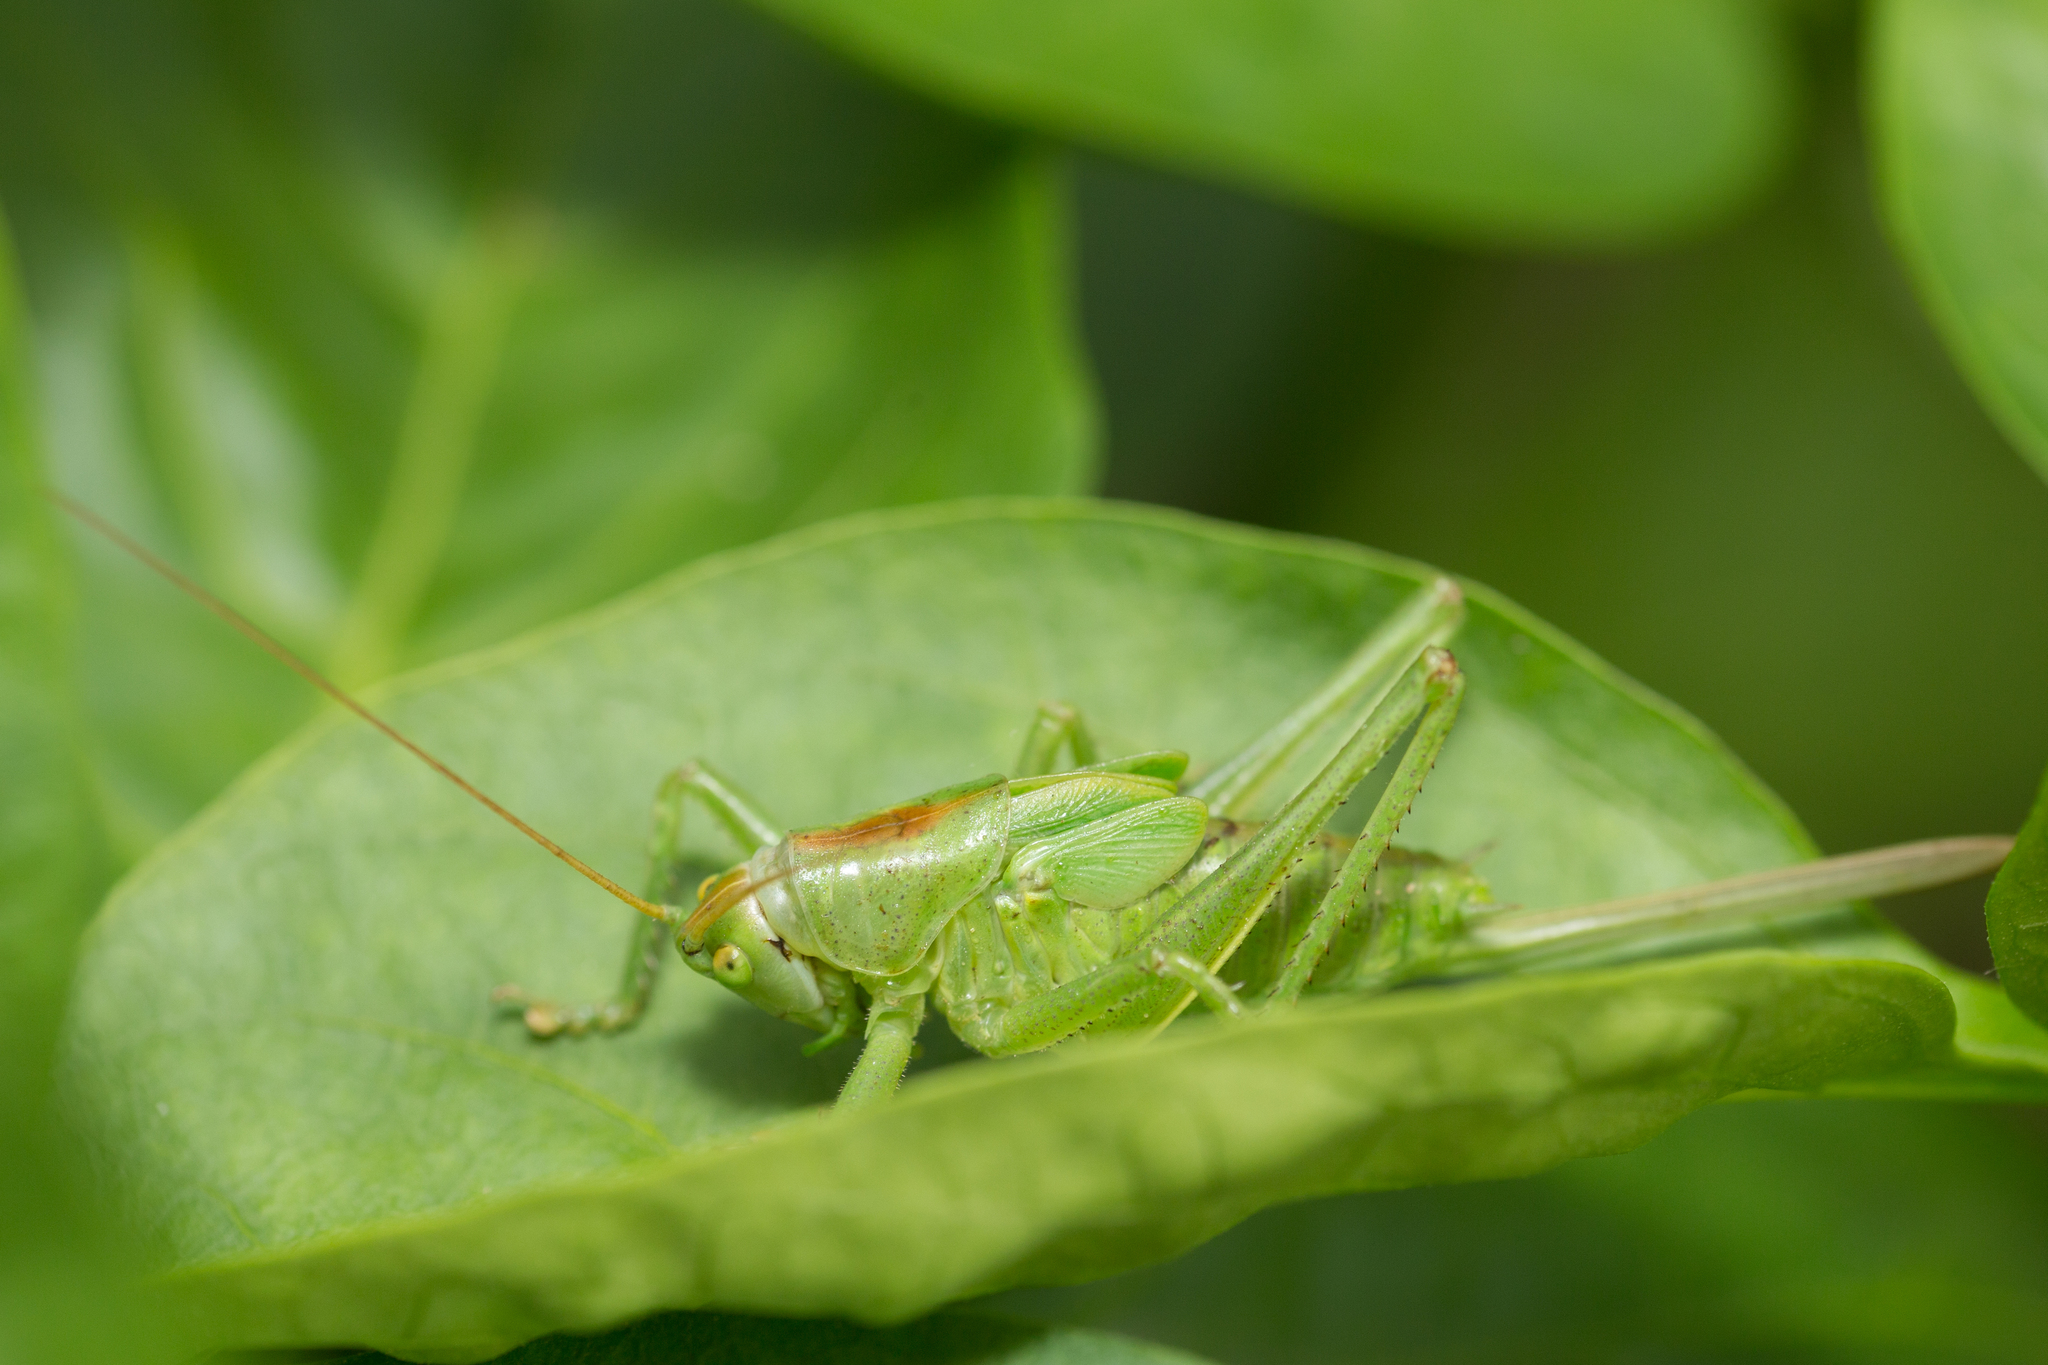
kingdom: Animalia
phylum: Arthropoda
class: Insecta
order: Orthoptera
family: Tettigoniidae
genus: Tettigonia
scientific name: Tettigonia cantans
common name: Upland green bush-cricket
